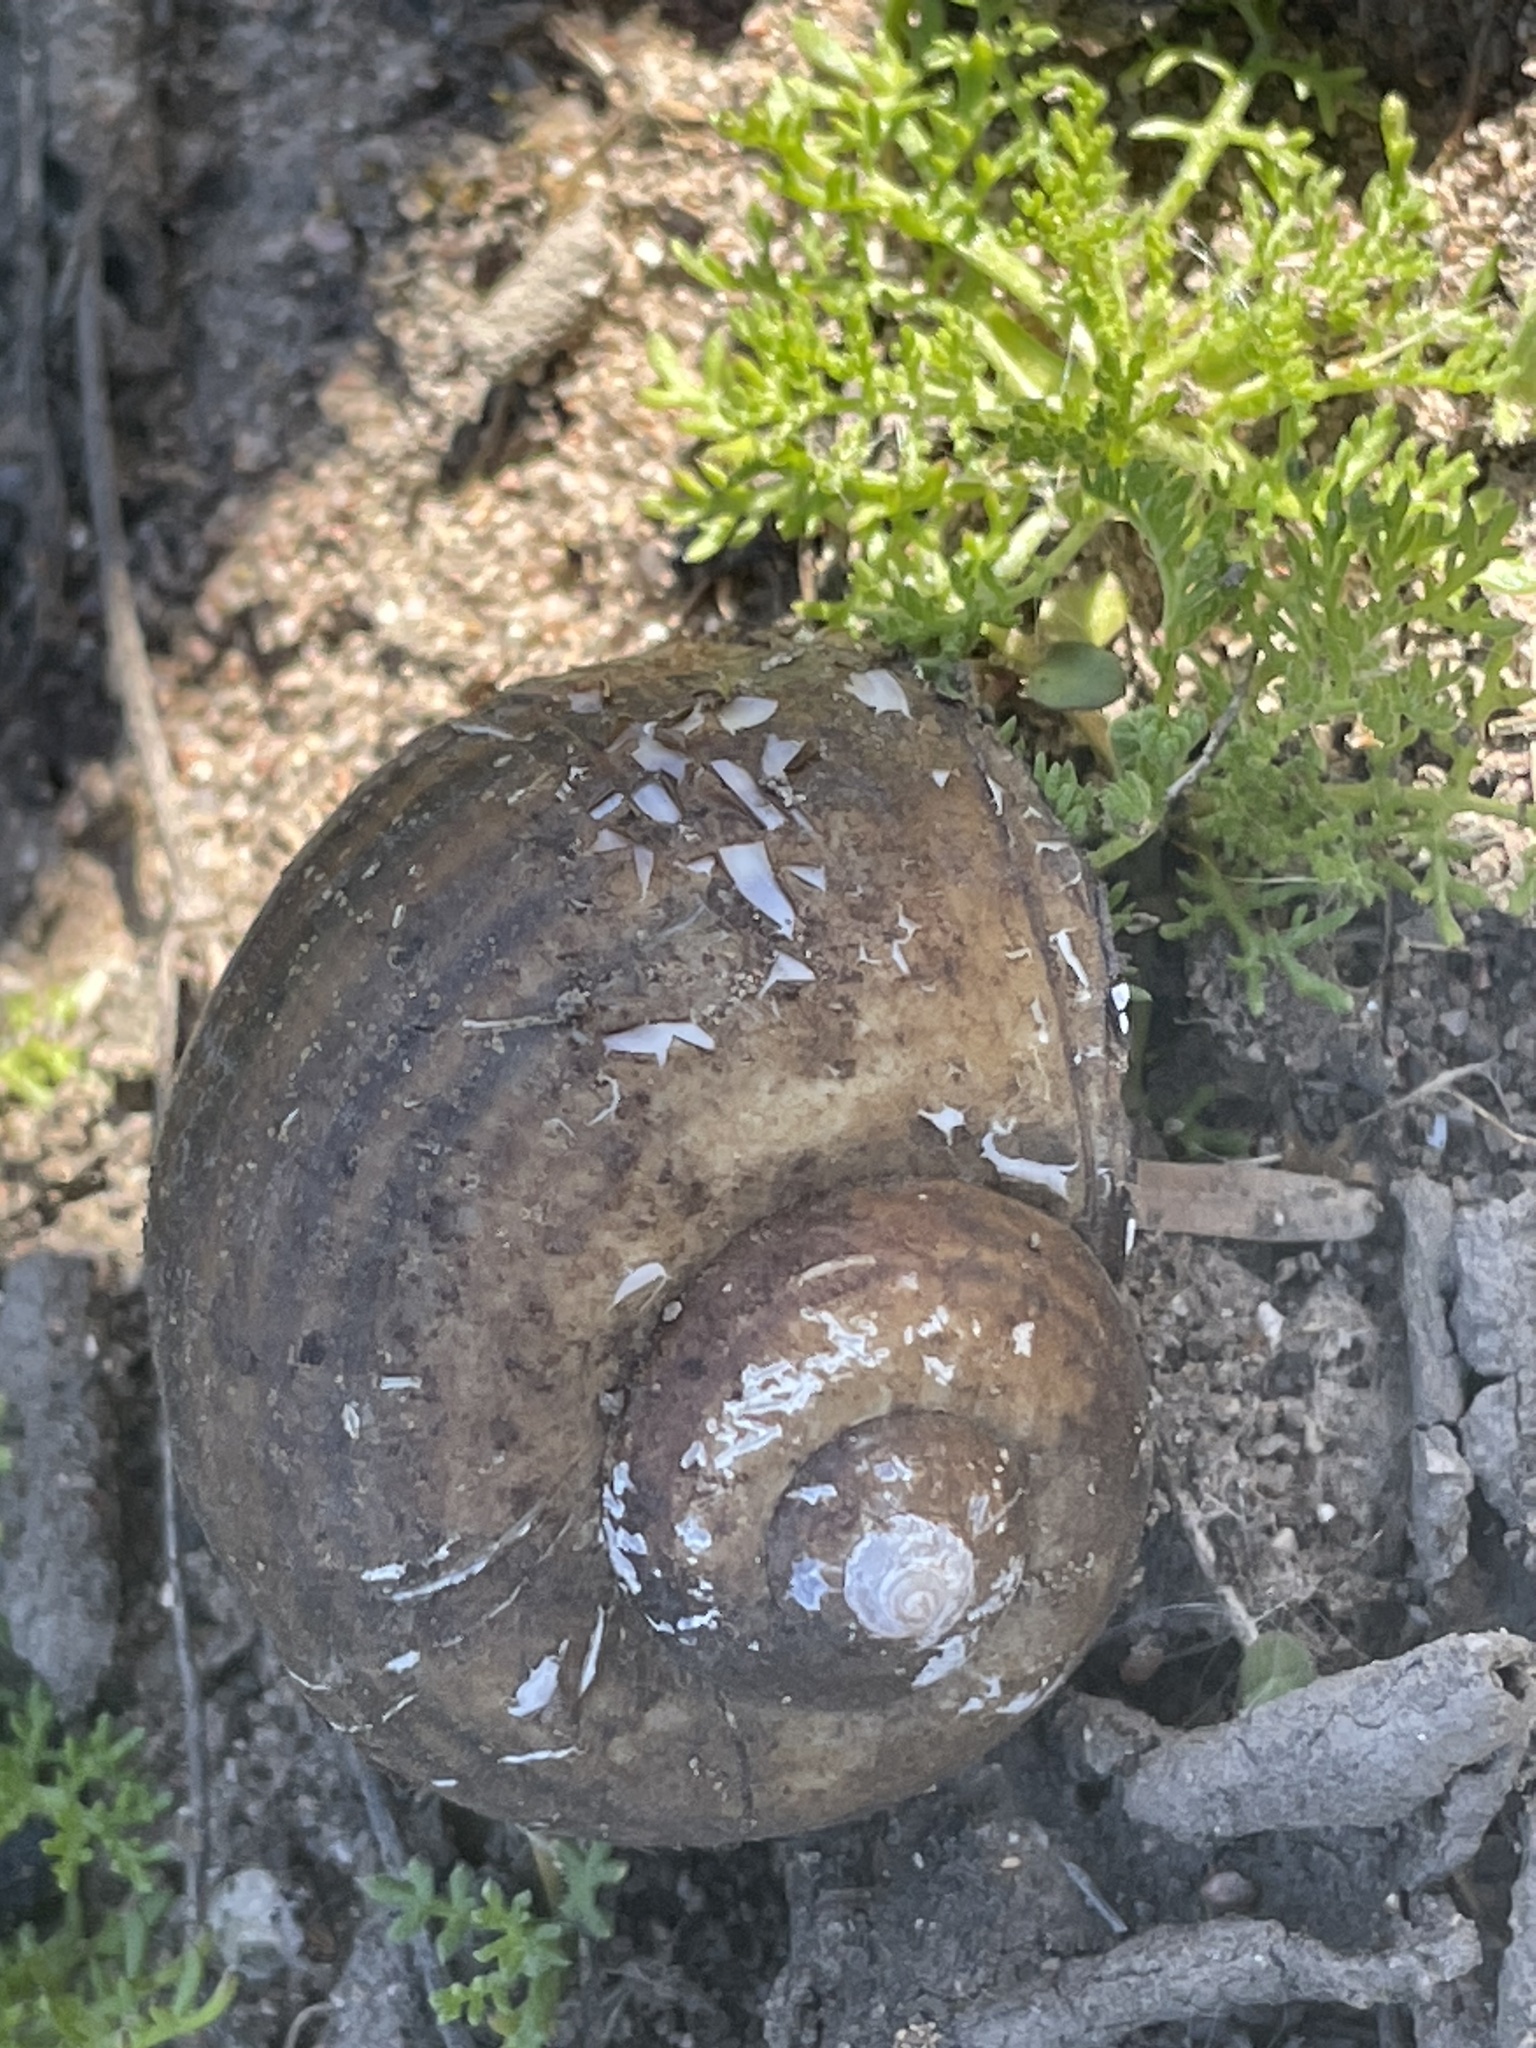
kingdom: Animalia
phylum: Mollusca
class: Gastropoda
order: Architaenioglossa
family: Ampullariidae
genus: Pomacea
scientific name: Pomacea canaliculata
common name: Channeled applesnail
